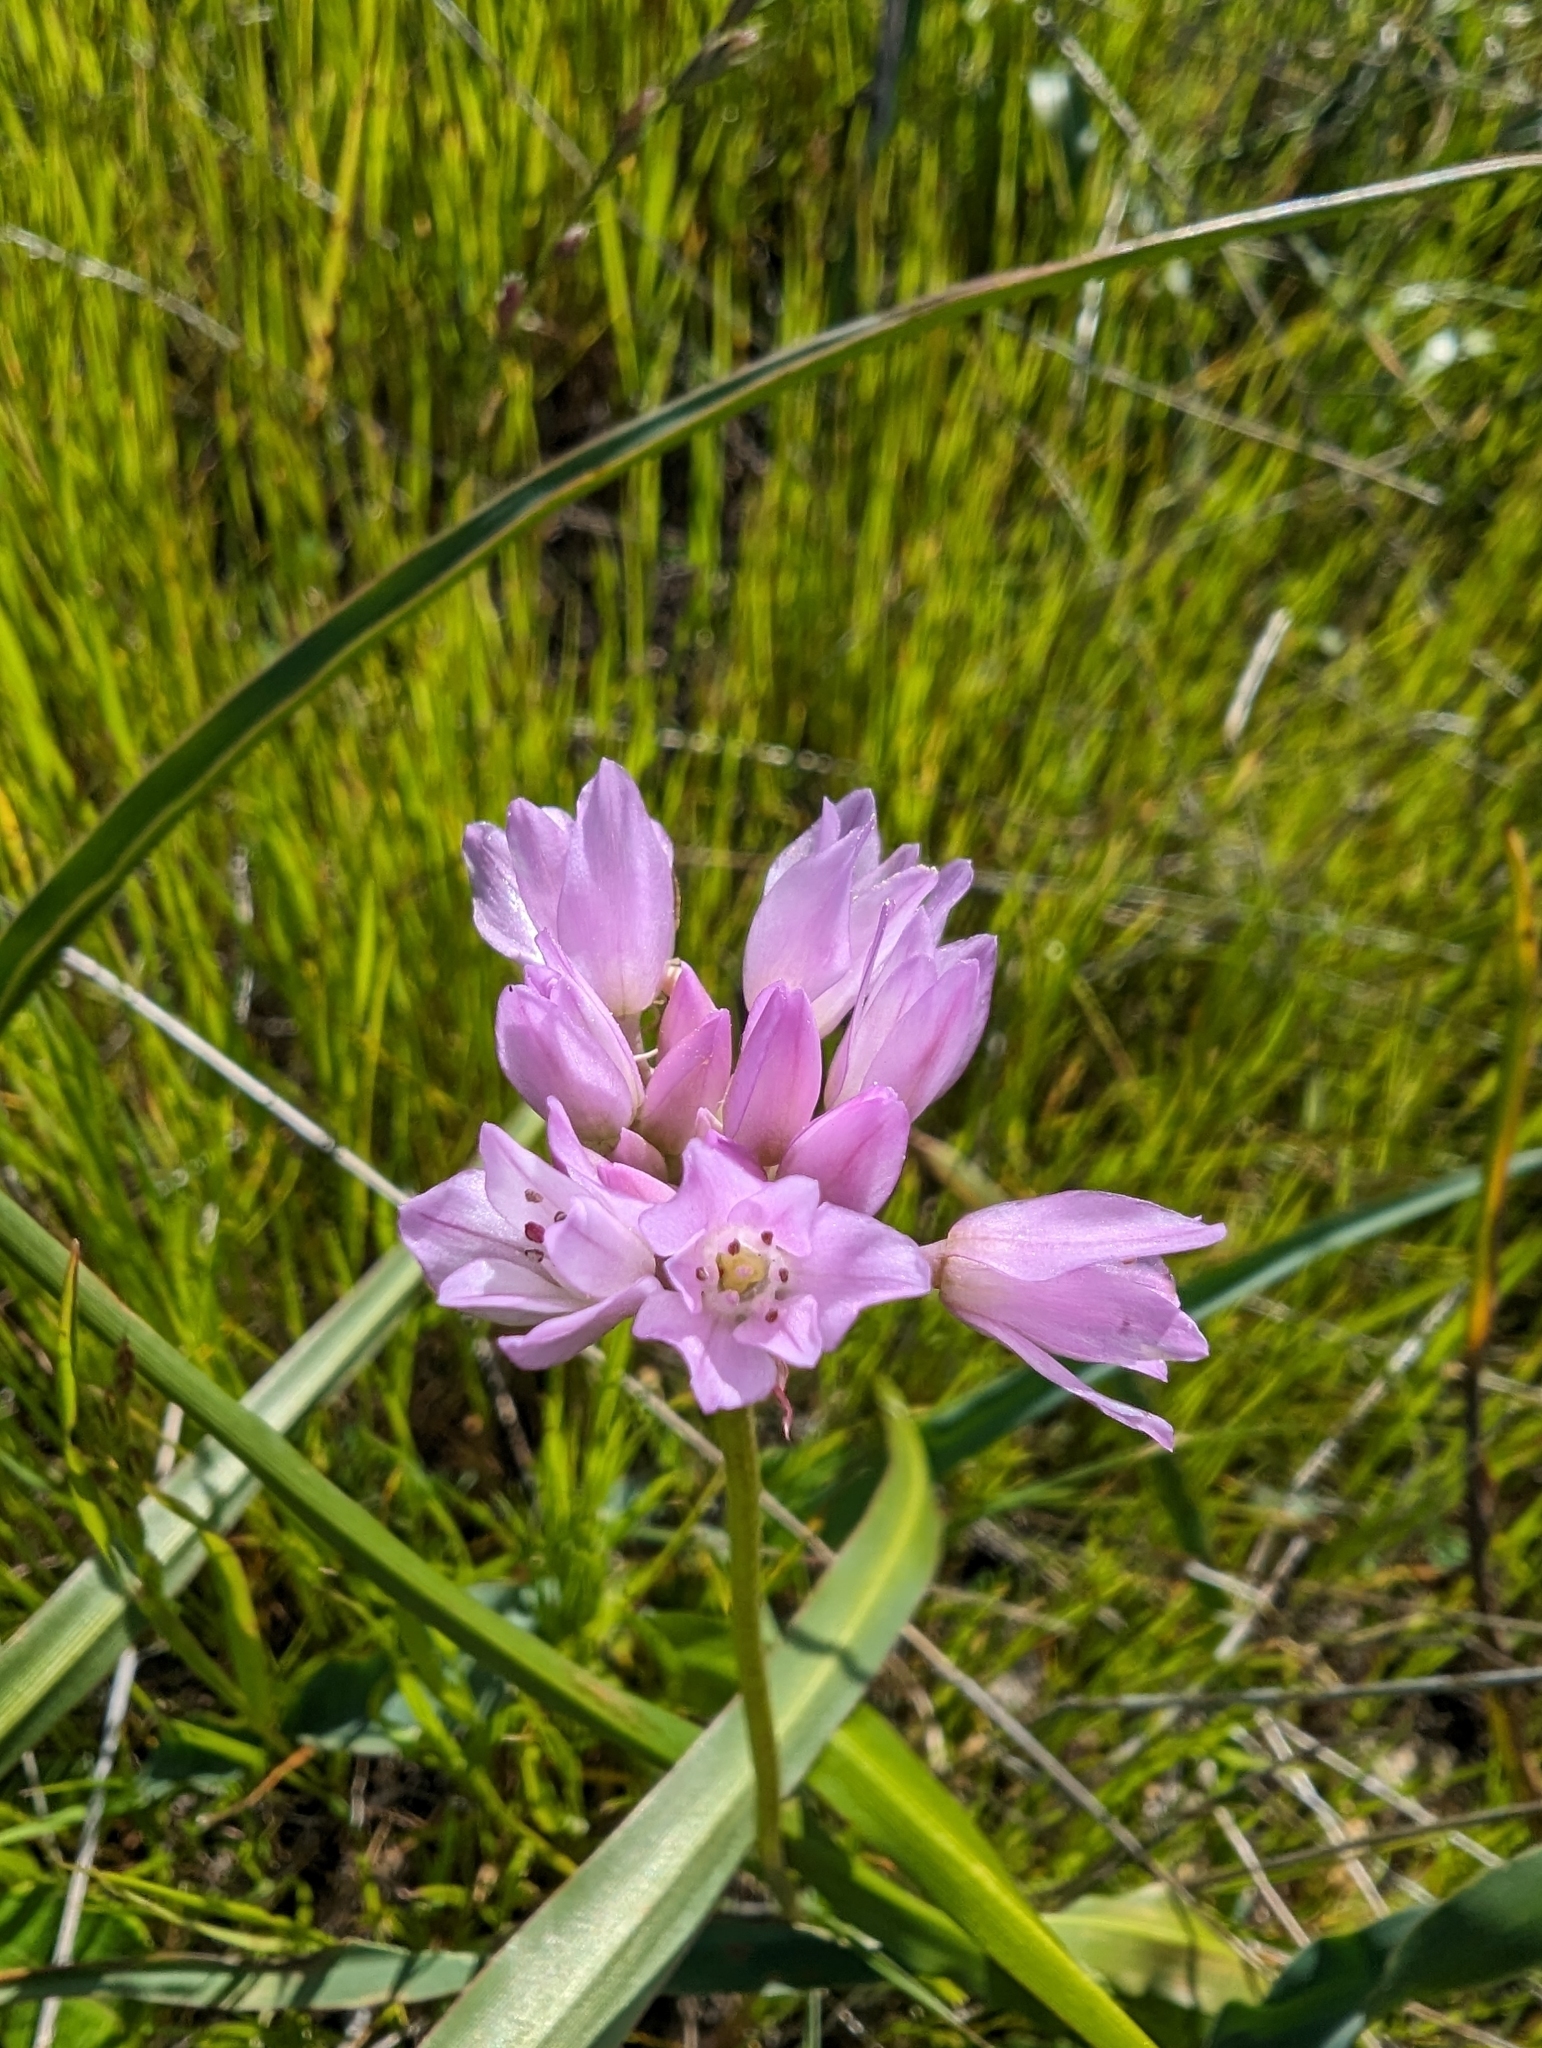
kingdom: Plantae
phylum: Tracheophyta
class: Liliopsida
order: Asparagales
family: Amaryllidaceae
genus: Allium
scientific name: Allium serra
